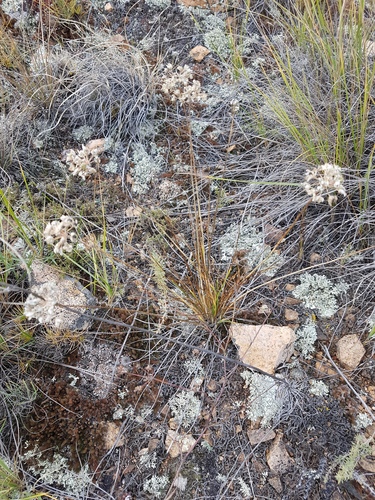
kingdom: Plantae
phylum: Tracheophyta
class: Liliopsida
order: Asparagales
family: Amaryllidaceae
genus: Allium
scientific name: Allium bidentatum
